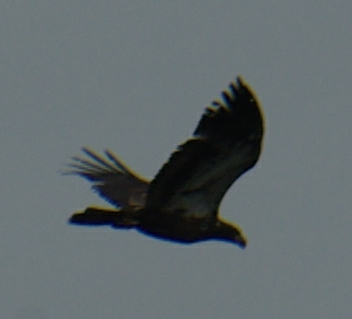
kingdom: Animalia
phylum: Chordata
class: Aves
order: Accipitriformes
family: Accipitridae
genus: Haliaeetus
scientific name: Haliaeetus leucocephalus
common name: Bald eagle
